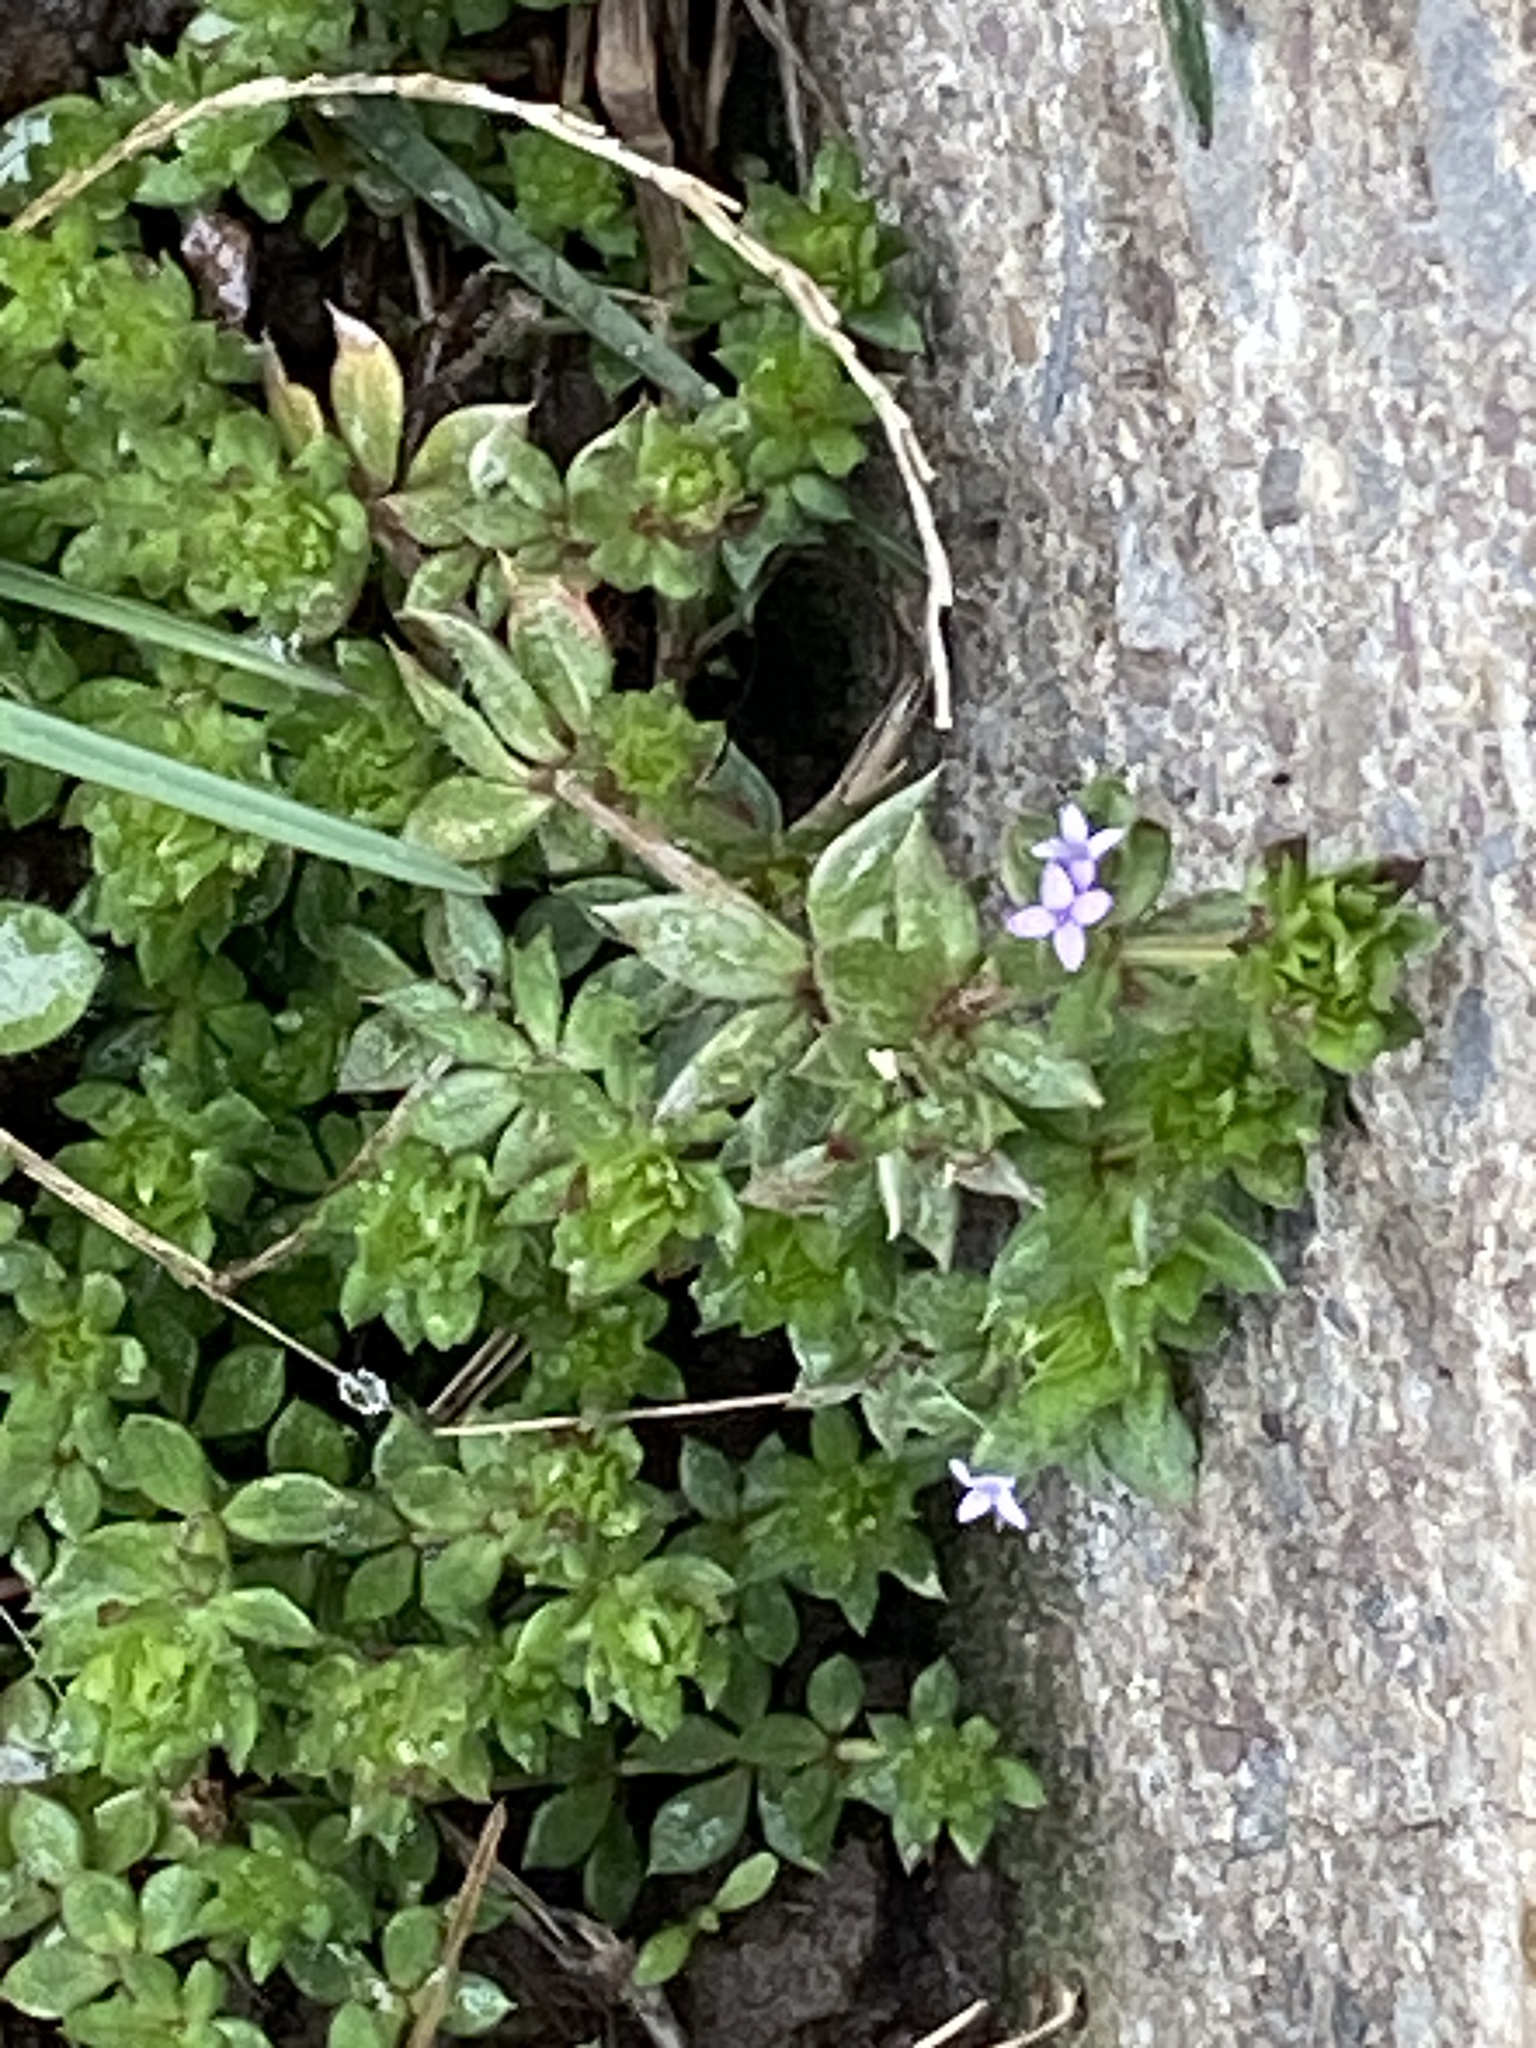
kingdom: Plantae
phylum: Tracheophyta
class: Magnoliopsida
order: Gentianales
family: Rubiaceae
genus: Sherardia
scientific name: Sherardia arvensis
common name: Field madder
